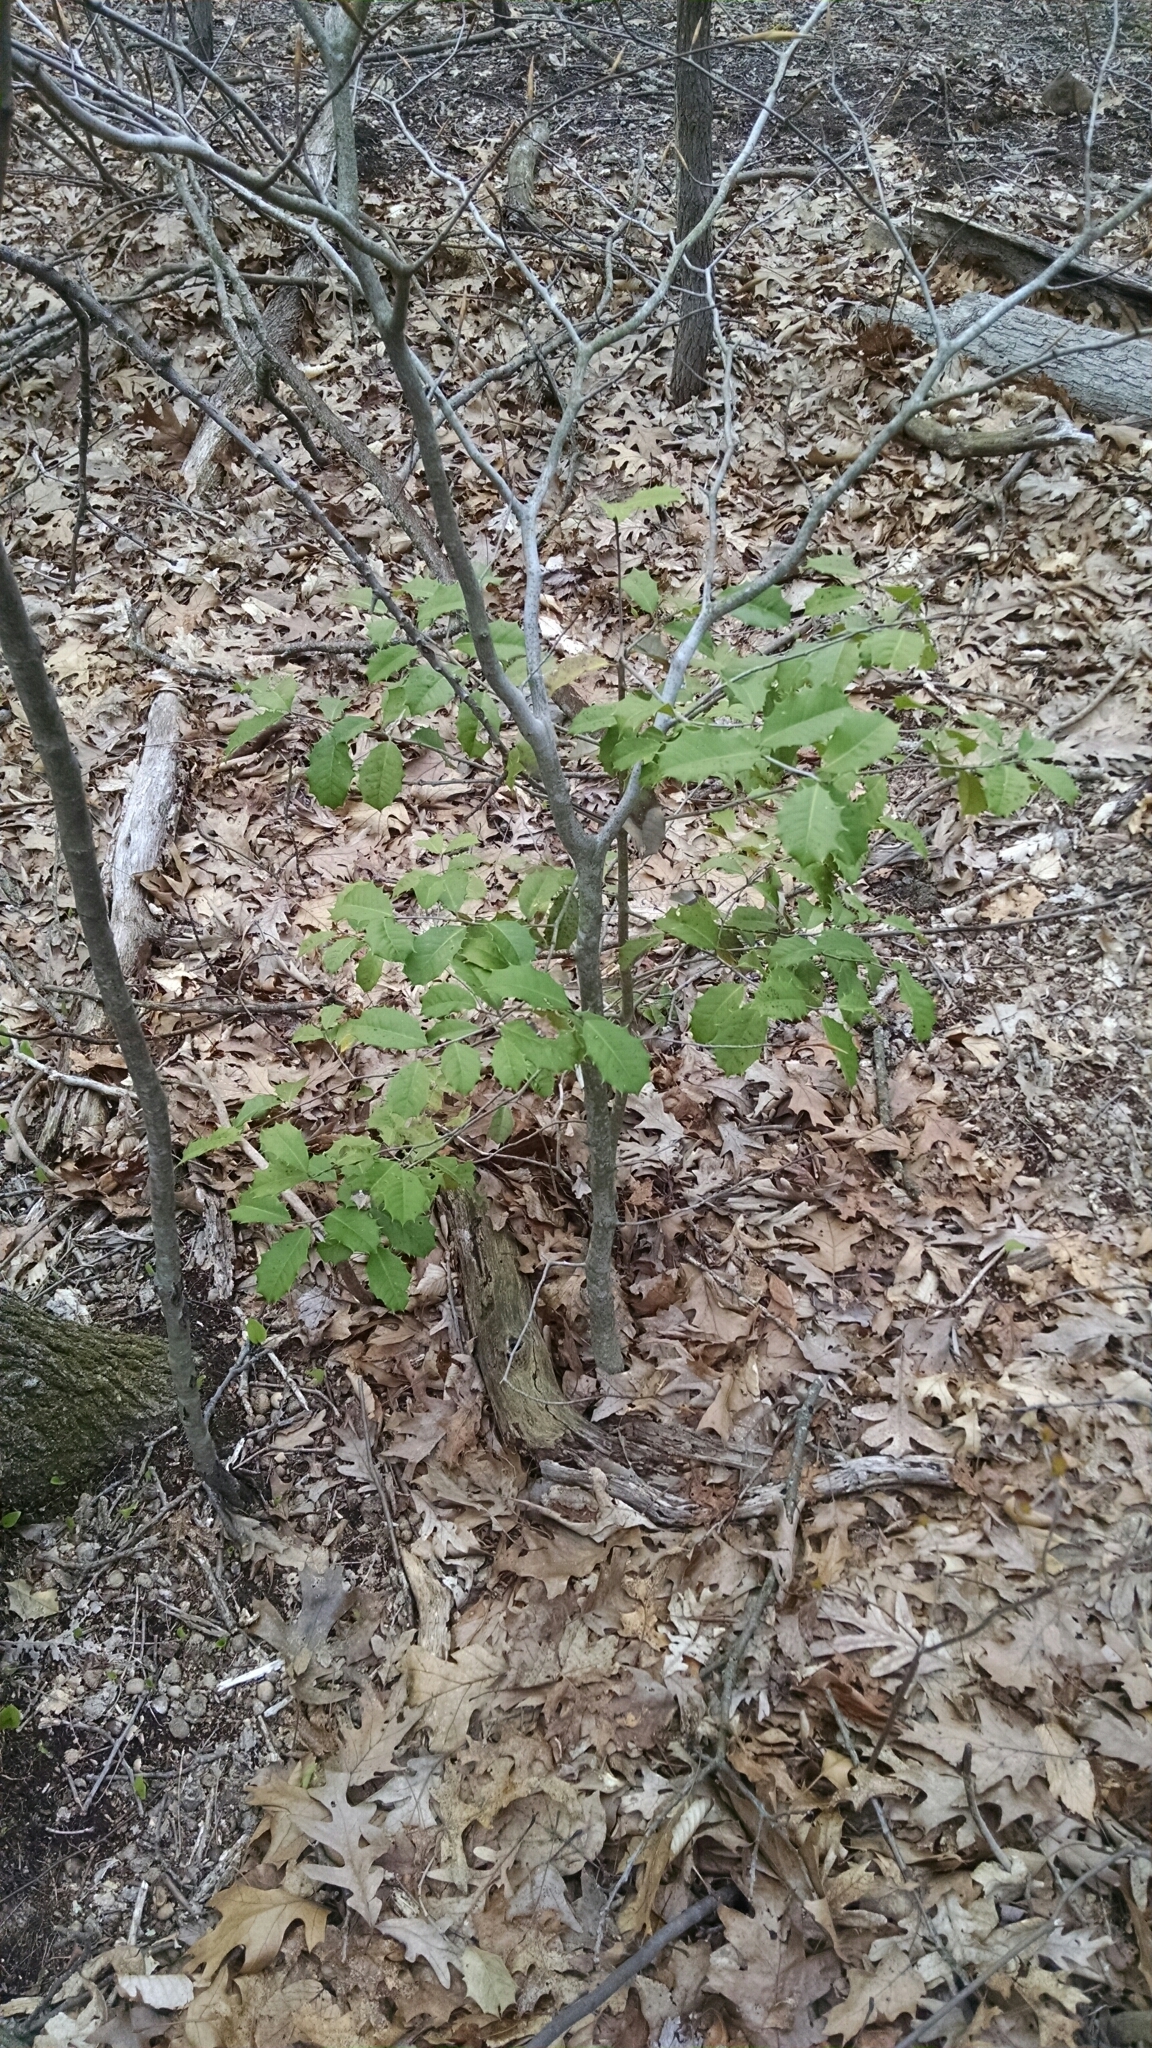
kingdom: Plantae
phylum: Tracheophyta
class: Magnoliopsida
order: Aquifoliales
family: Aquifoliaceae
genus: Ilex
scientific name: Ilex opaca
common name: American holly
